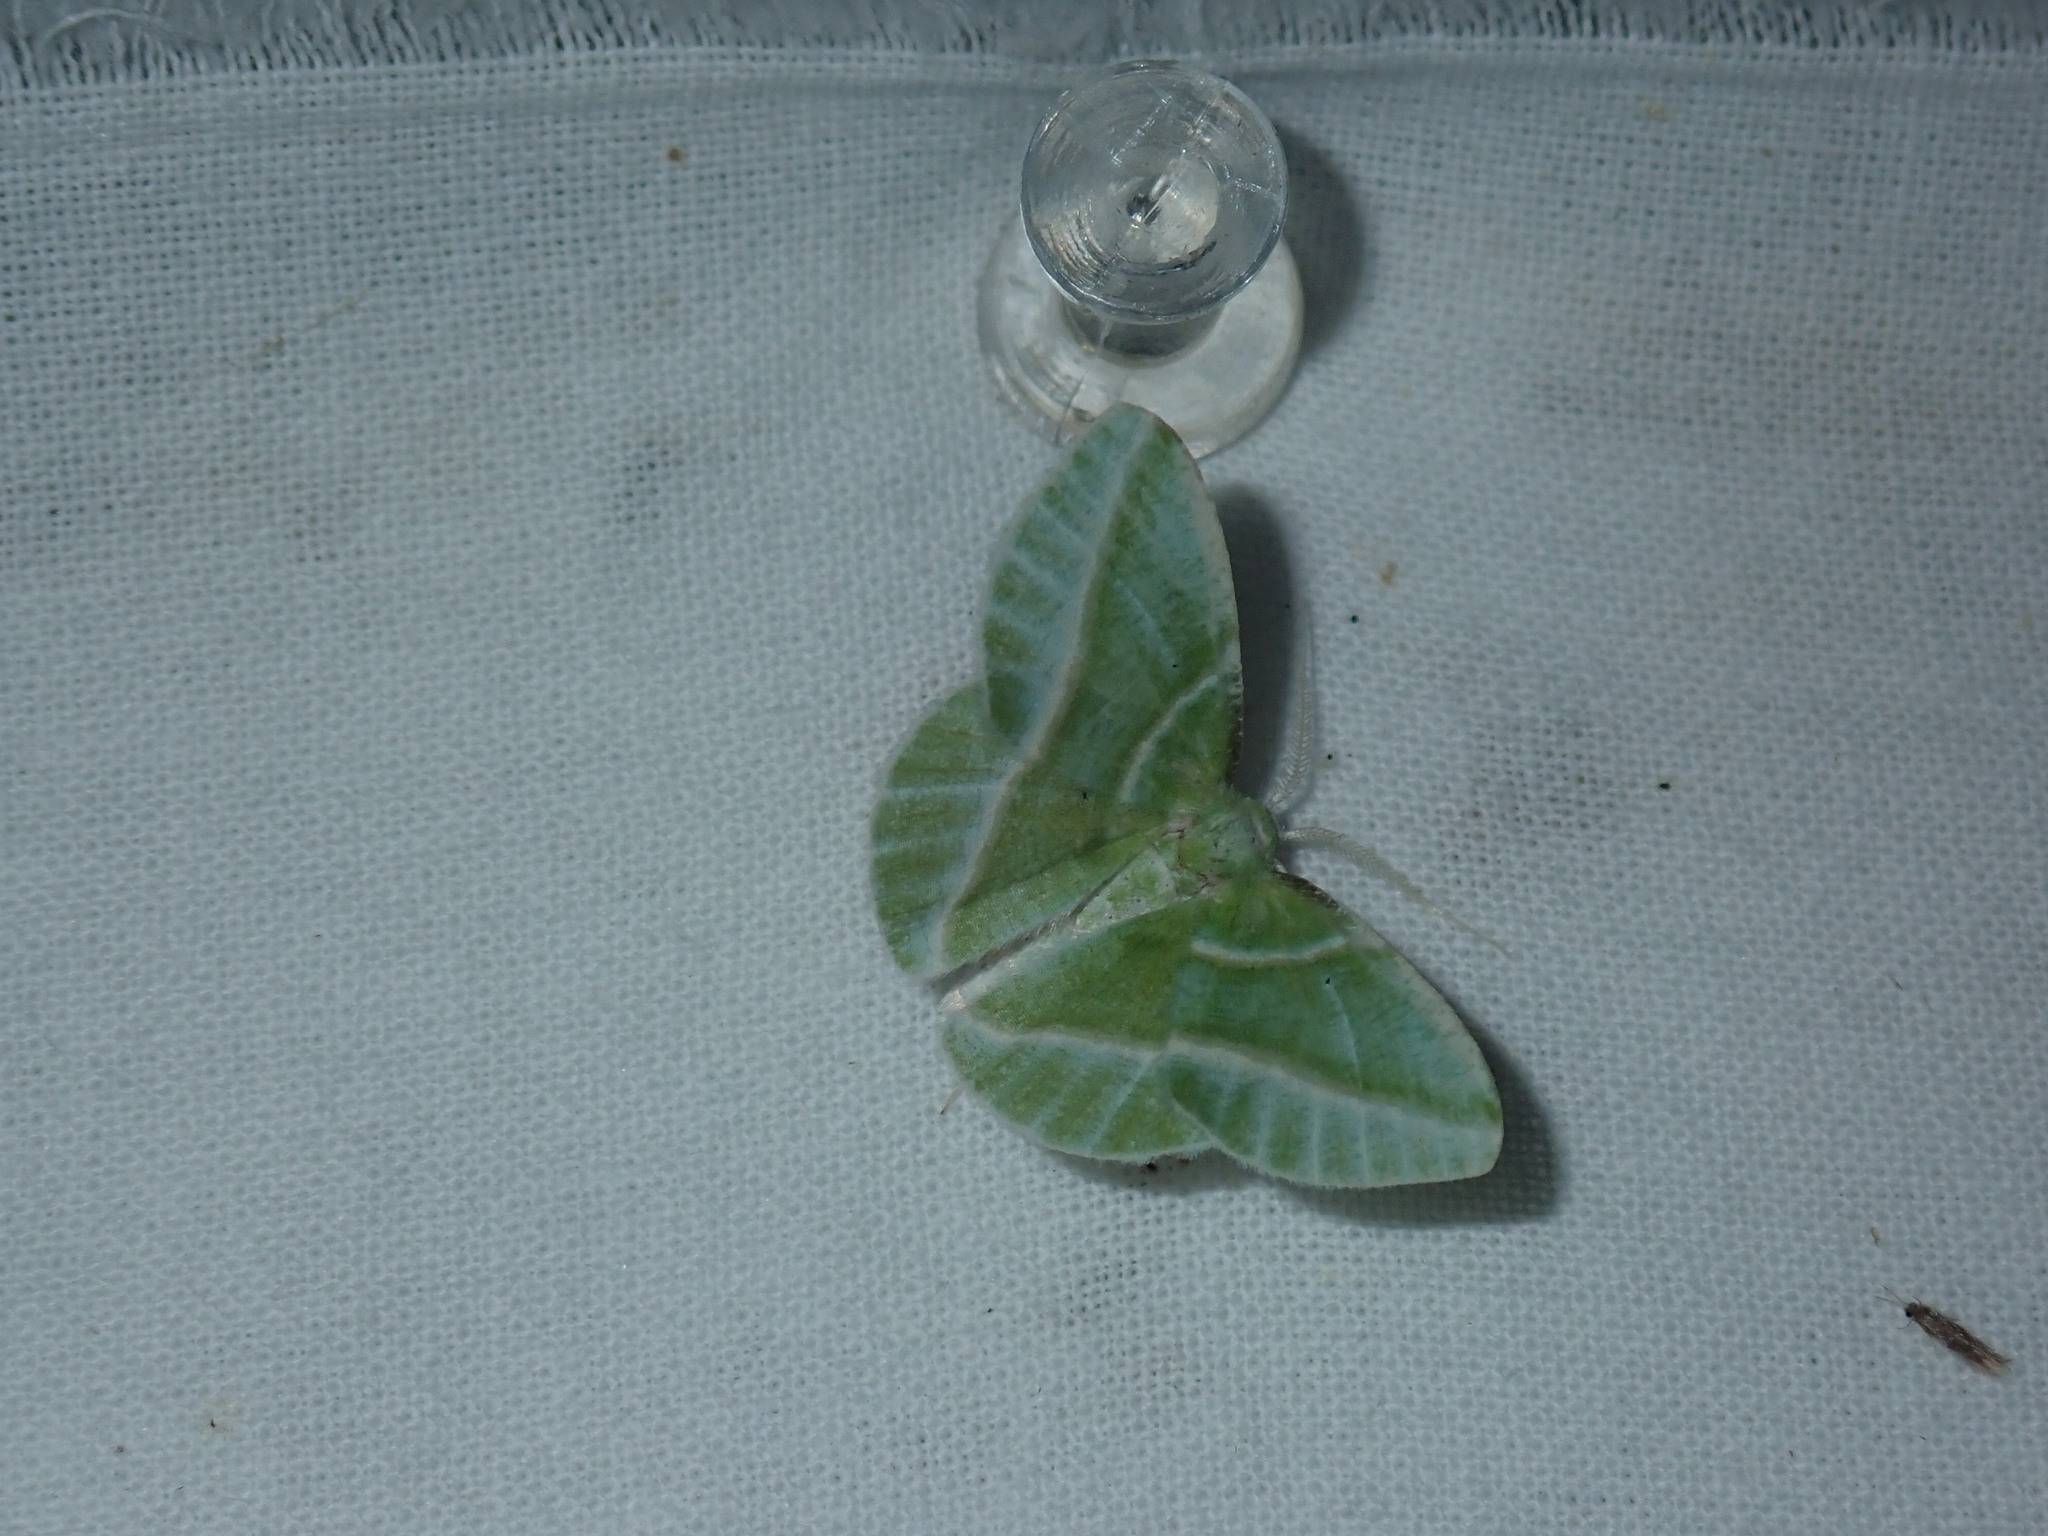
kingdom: Animalia
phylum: Arthropoda
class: Insecta
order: Lepidoptera
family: Geometridae
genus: Dichorda
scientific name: Dichorda iridaria
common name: Showy emerald
